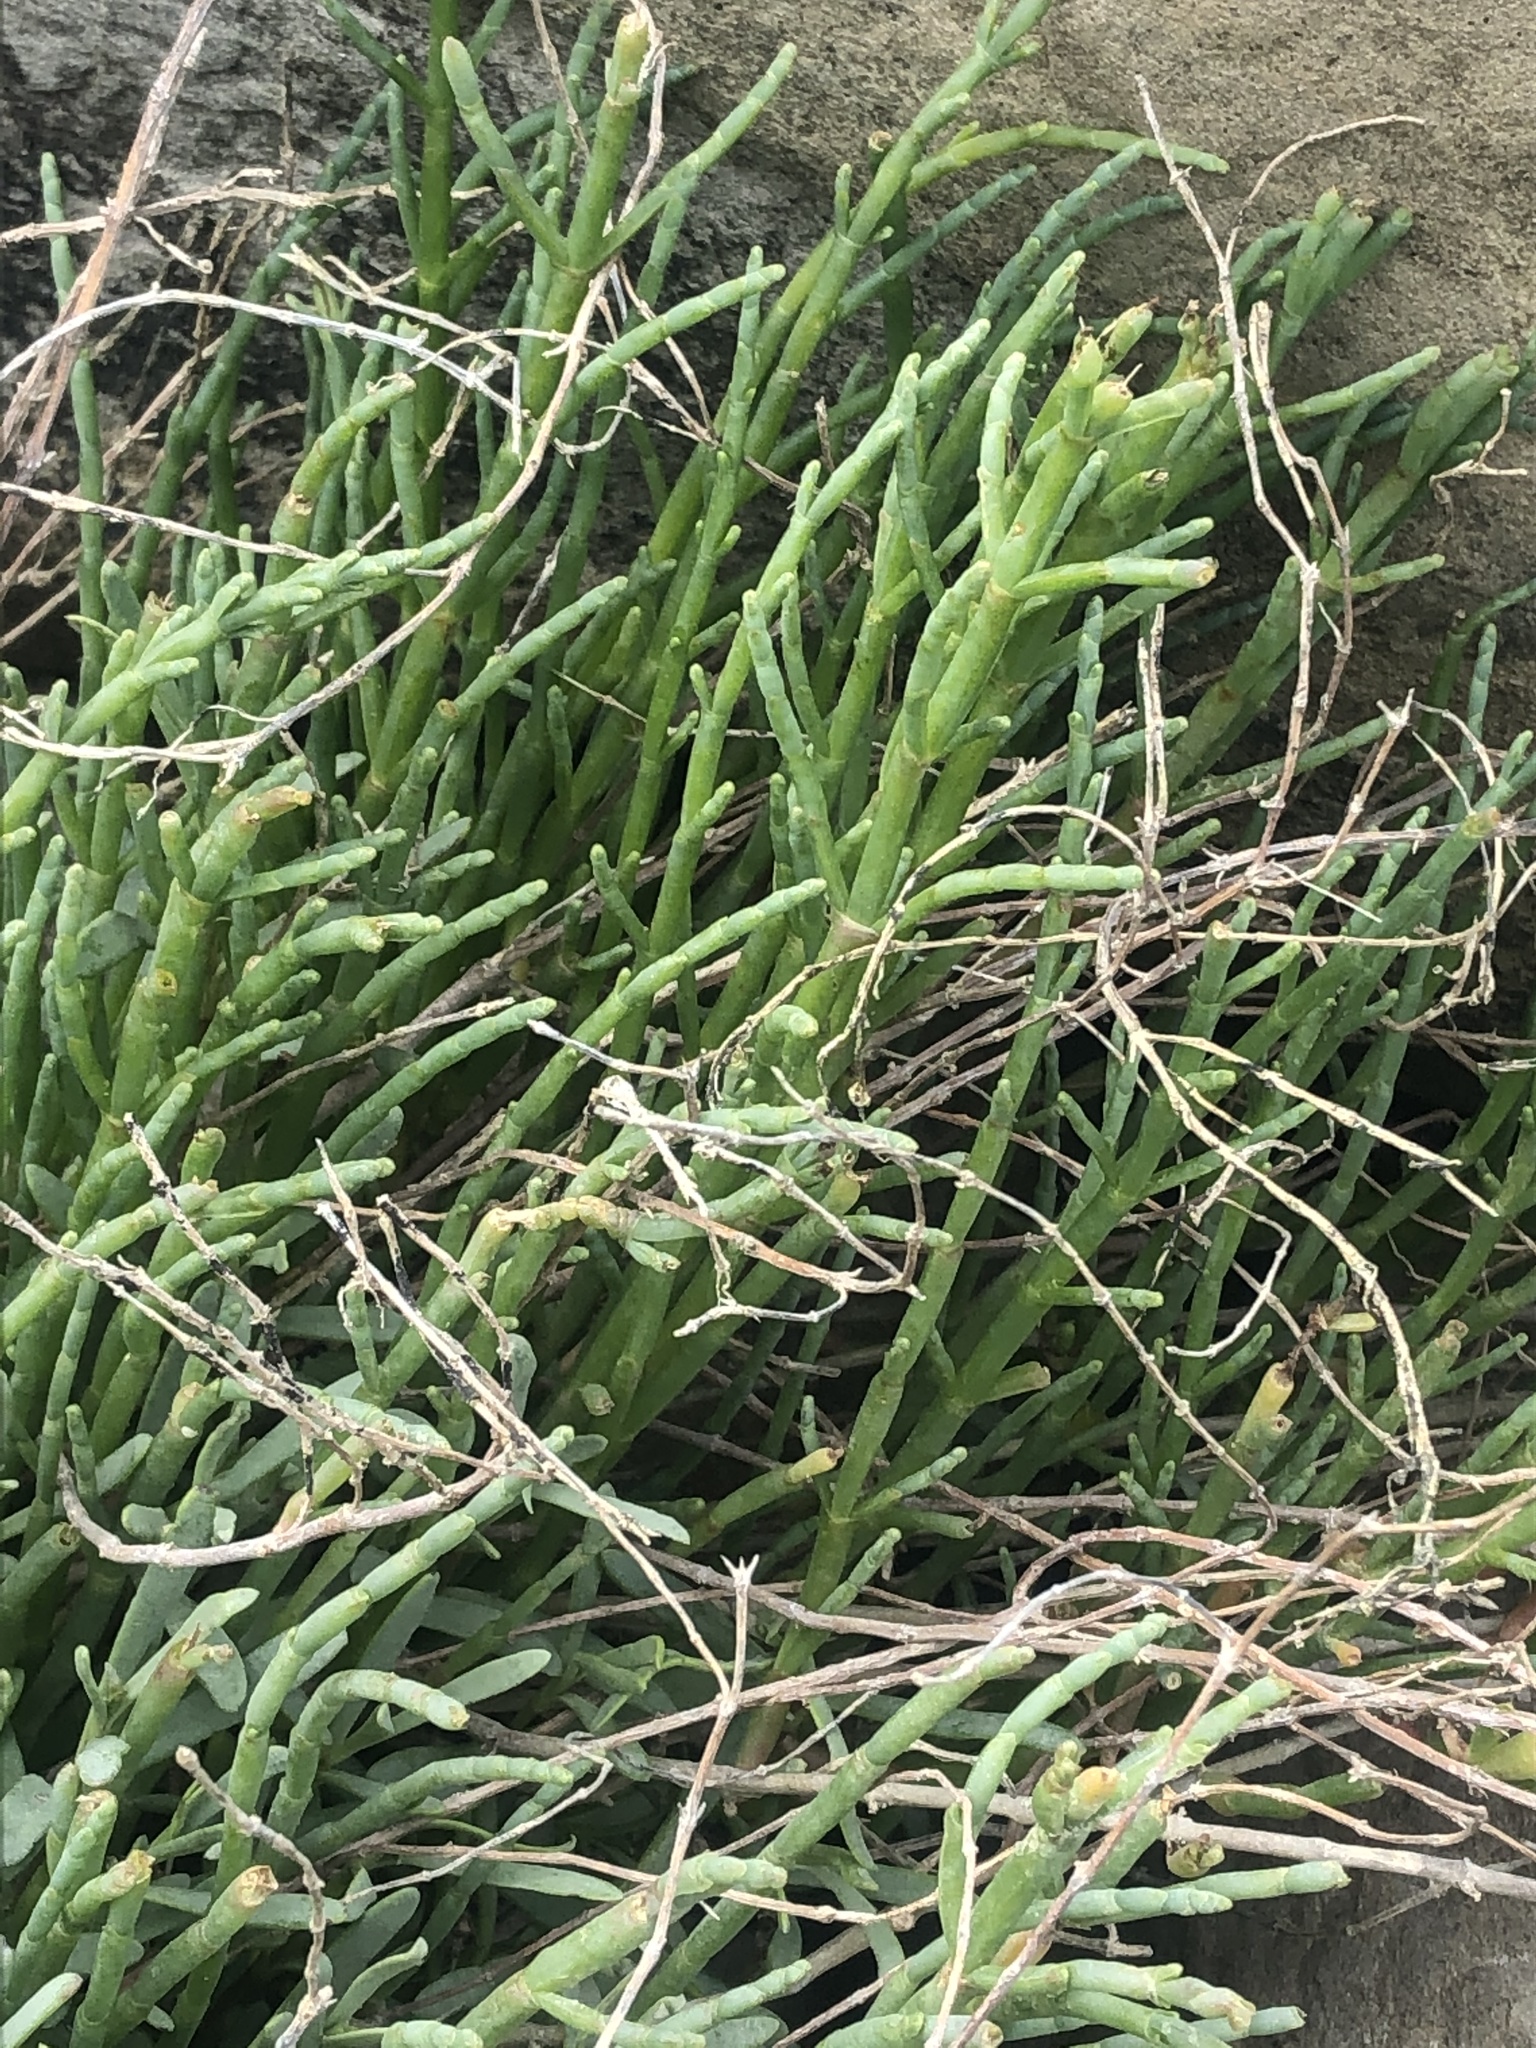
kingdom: Plantae
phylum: Tracheophyta
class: Magnoliopsida
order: Caryophyllales
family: Amaranthaceae
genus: Salicornia
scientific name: Salicornia pacifica
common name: Pacific glasswort
